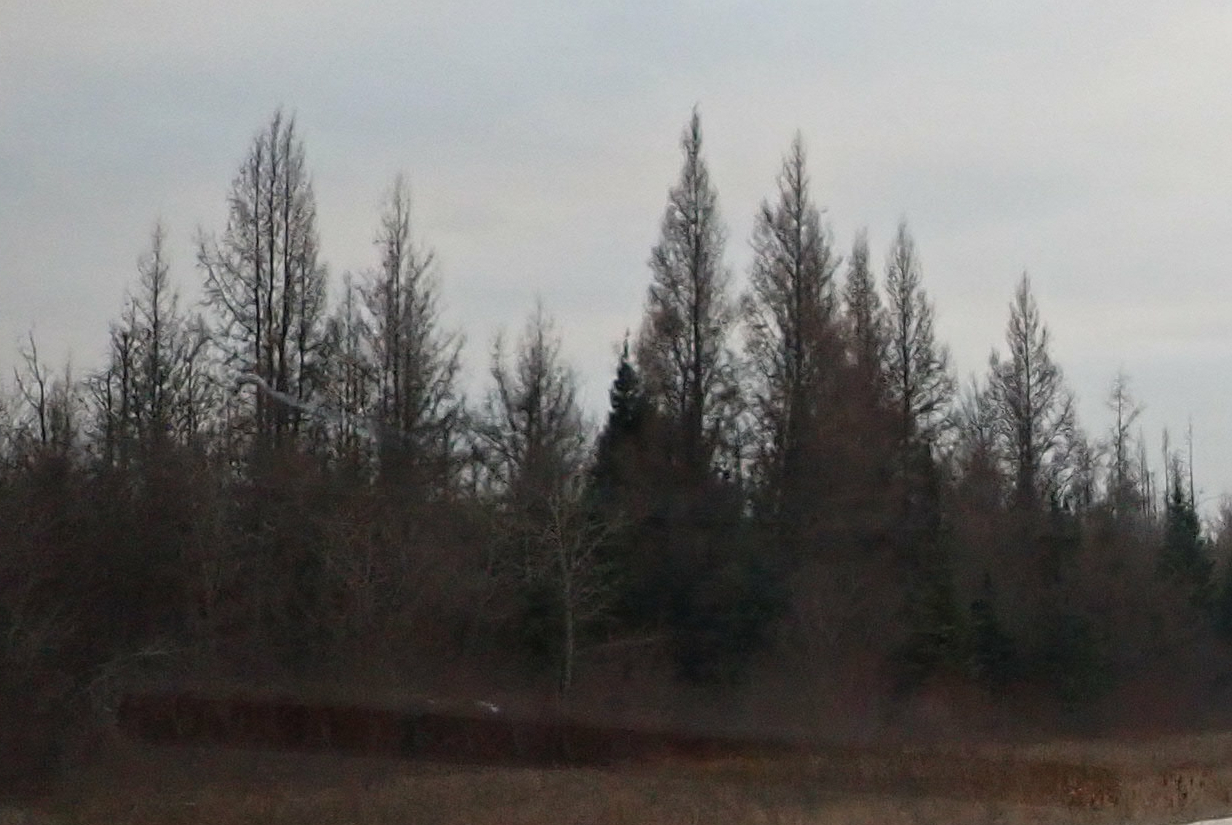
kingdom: Plantae
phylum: Tracheophyta
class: Pinopsida
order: Pinales
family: Pinaceae
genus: Larix
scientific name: Larix laricina
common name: American larch
